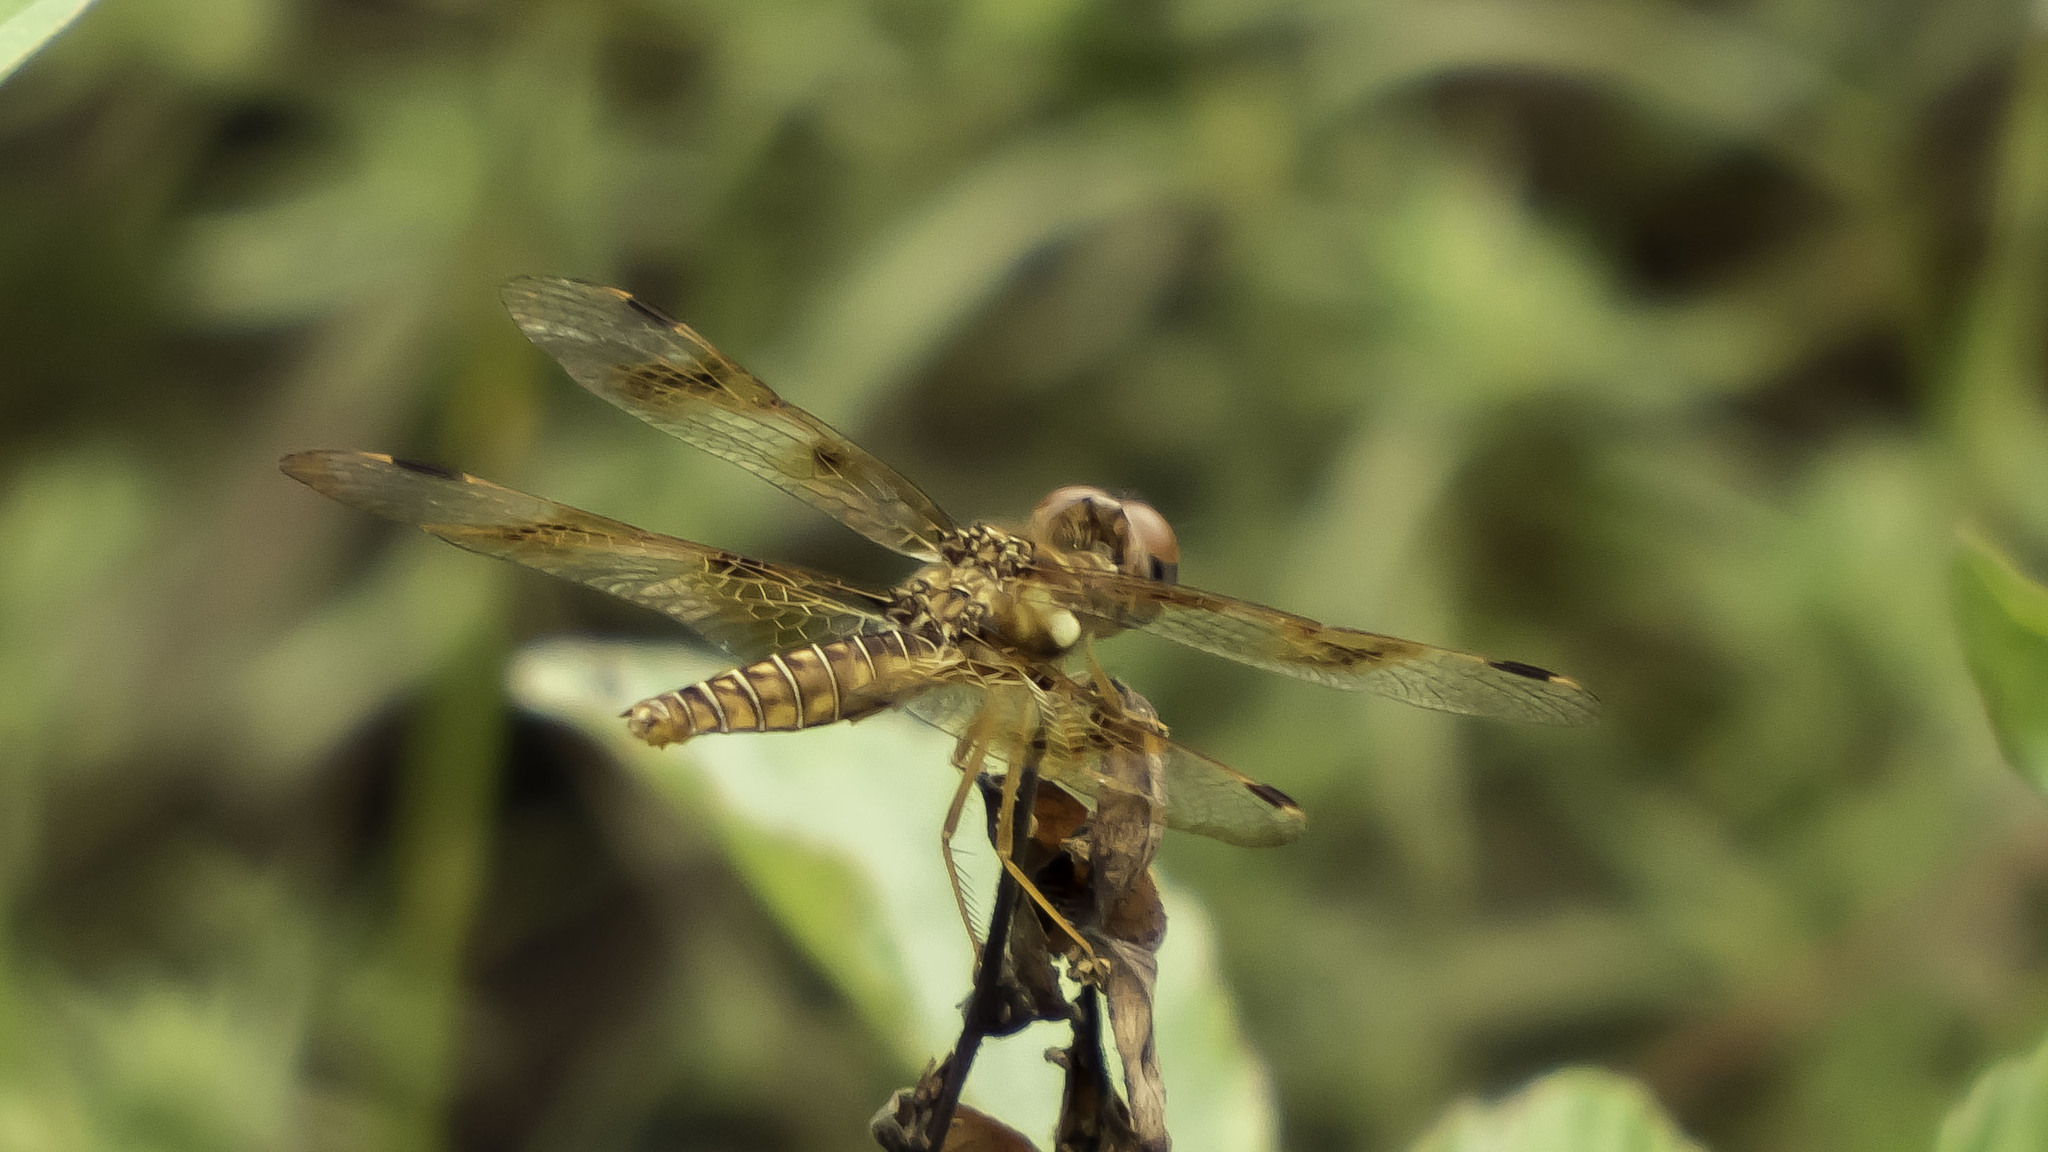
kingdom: Animalia
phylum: Arthropoda
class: Insecta
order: Odonata
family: Libellulidae
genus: Perithemis
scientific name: Perithemis tenera
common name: Eastern amberwing
